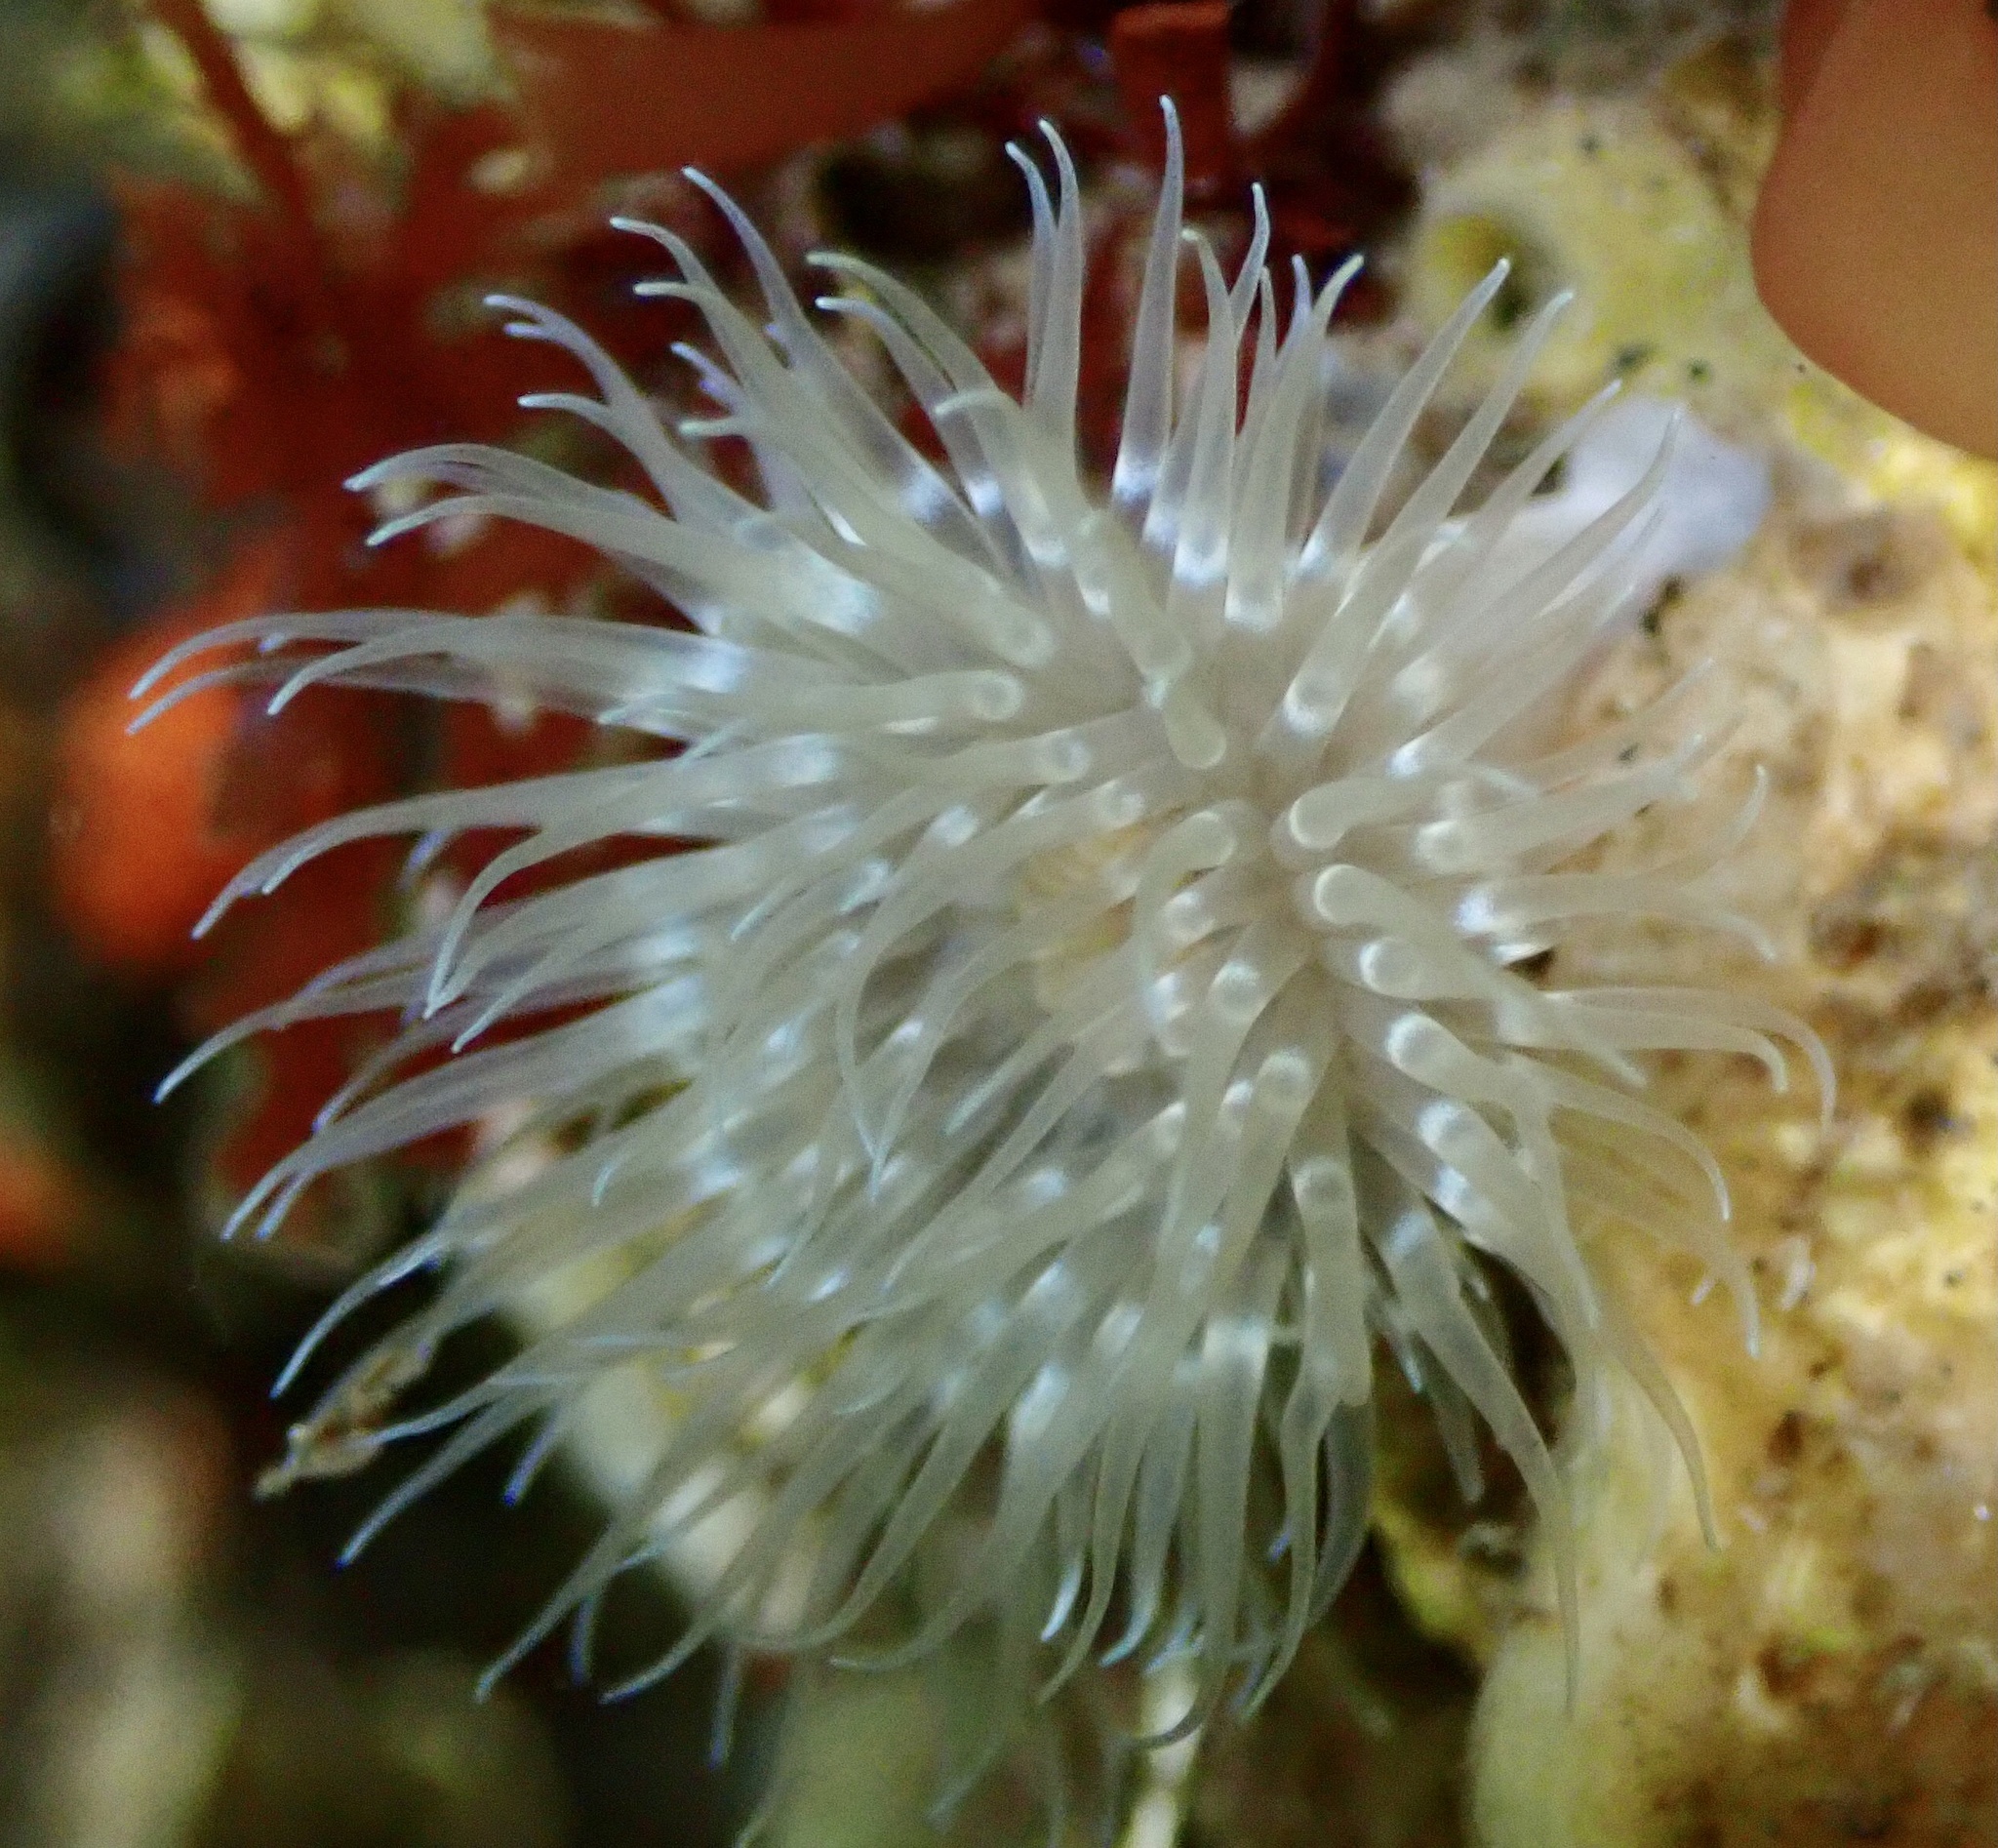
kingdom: Animalia
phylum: Cnidaria
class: Anthozoa
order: Actiniaria
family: Metridiidae
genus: Metridium
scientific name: Metridium senile
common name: Clonal plumose anemone
